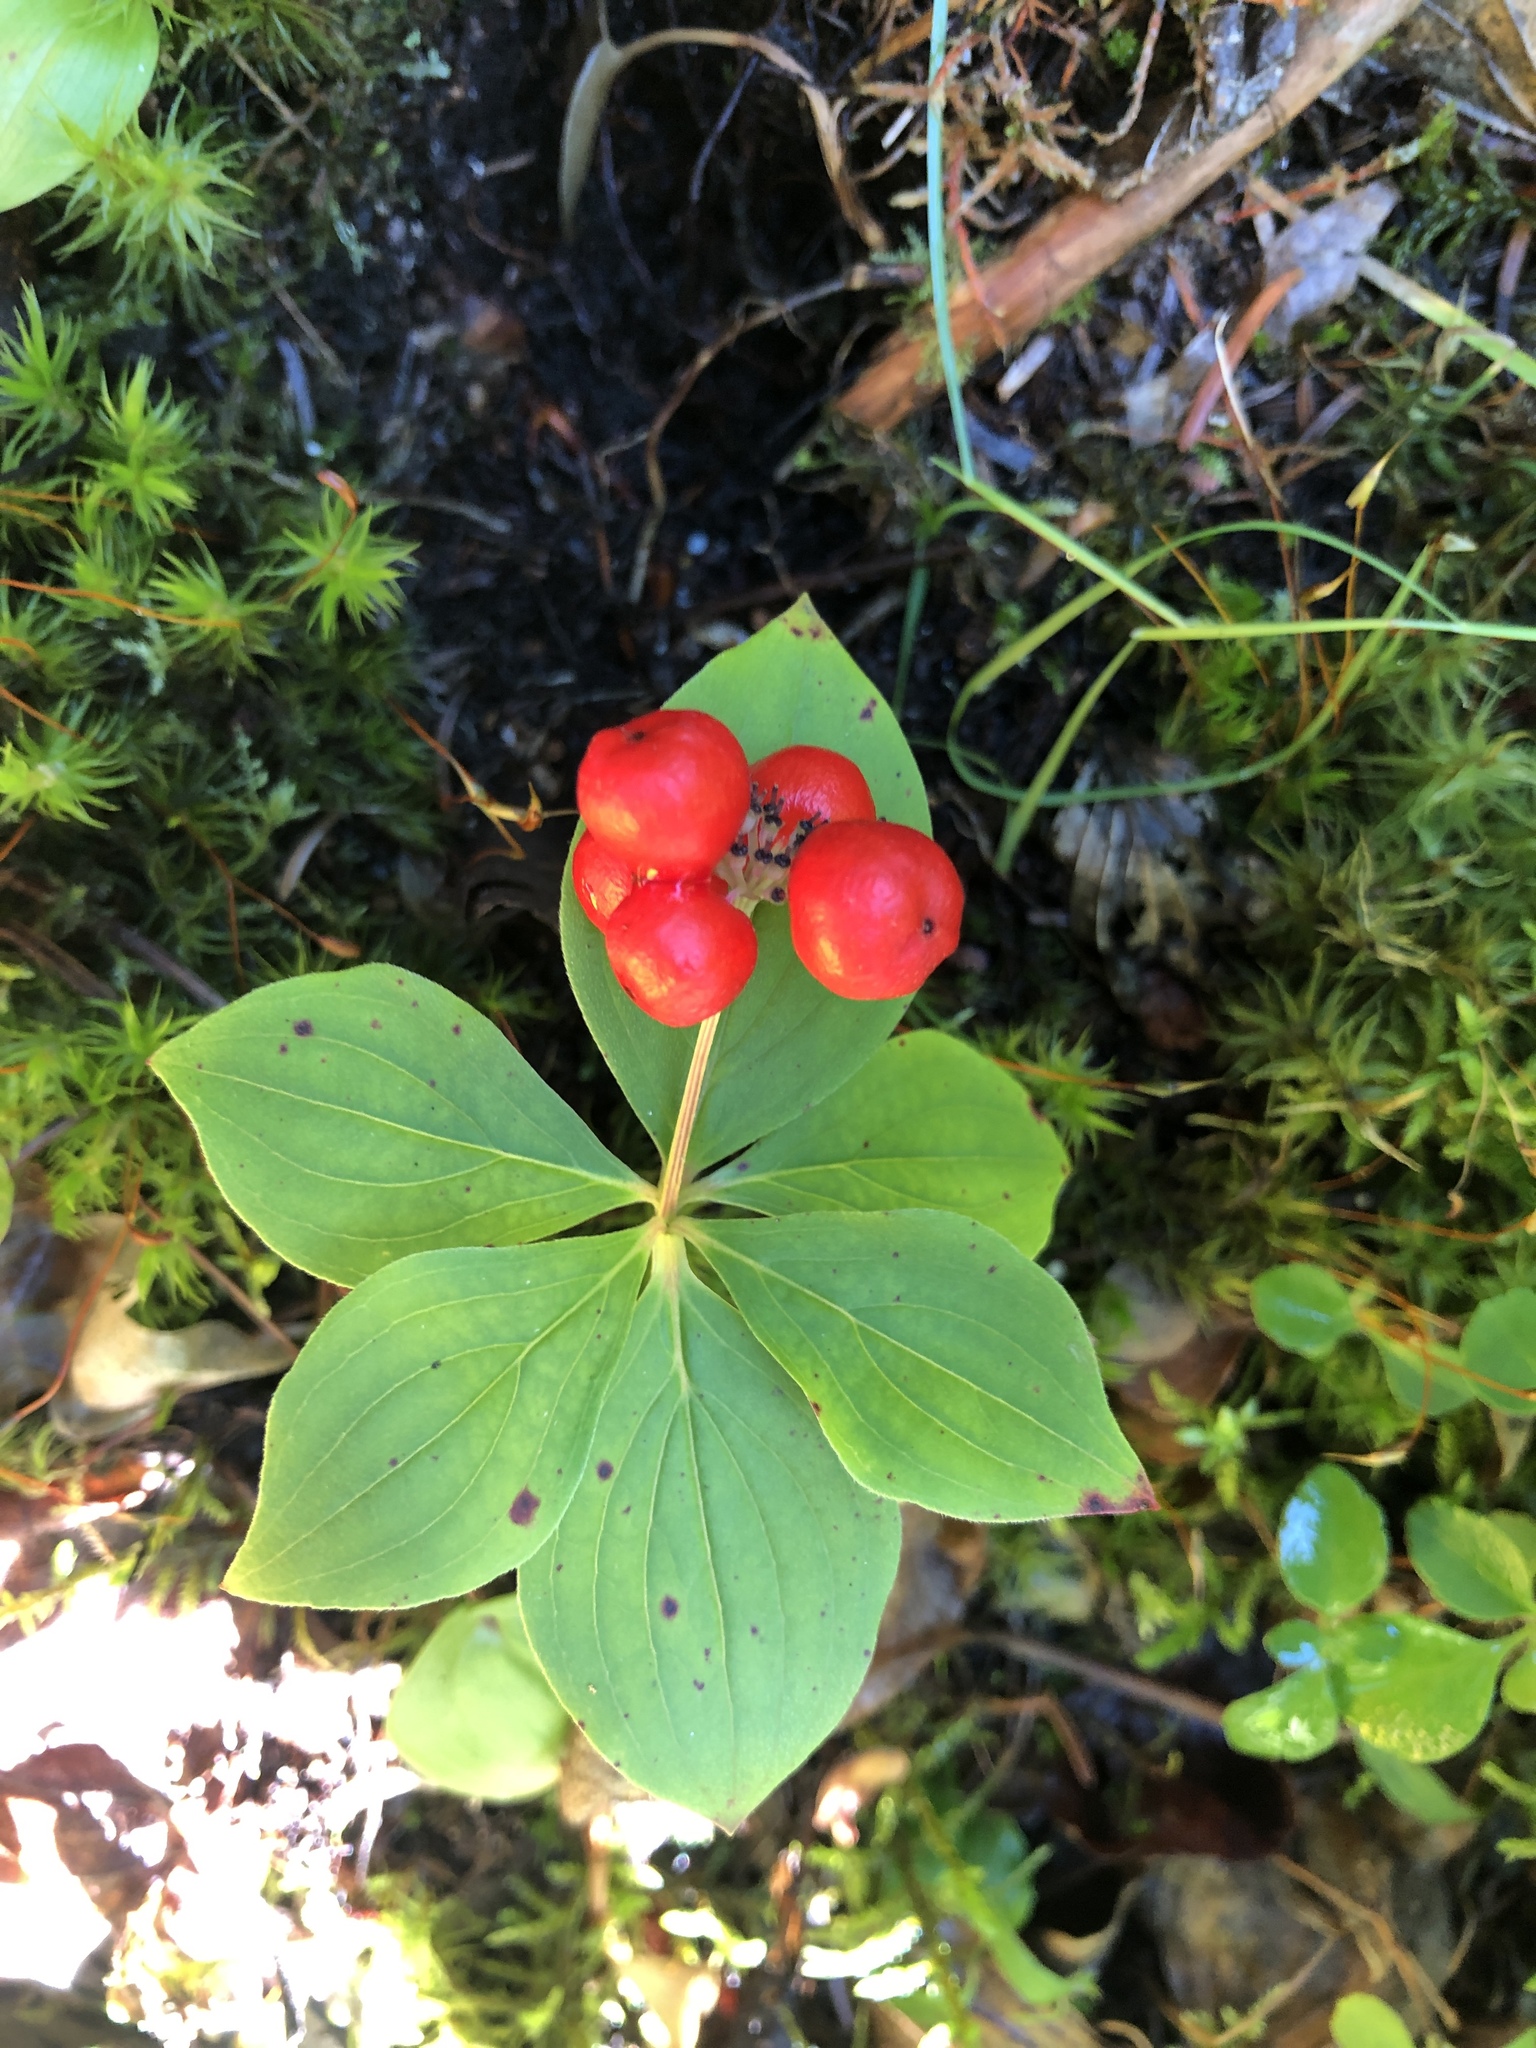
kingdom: Plantae
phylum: Tracheophyta
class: Magnoliopsida
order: Cornales
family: Cornaceae
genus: Cornus
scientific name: Cornus canadensis
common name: Creeping dogwood
